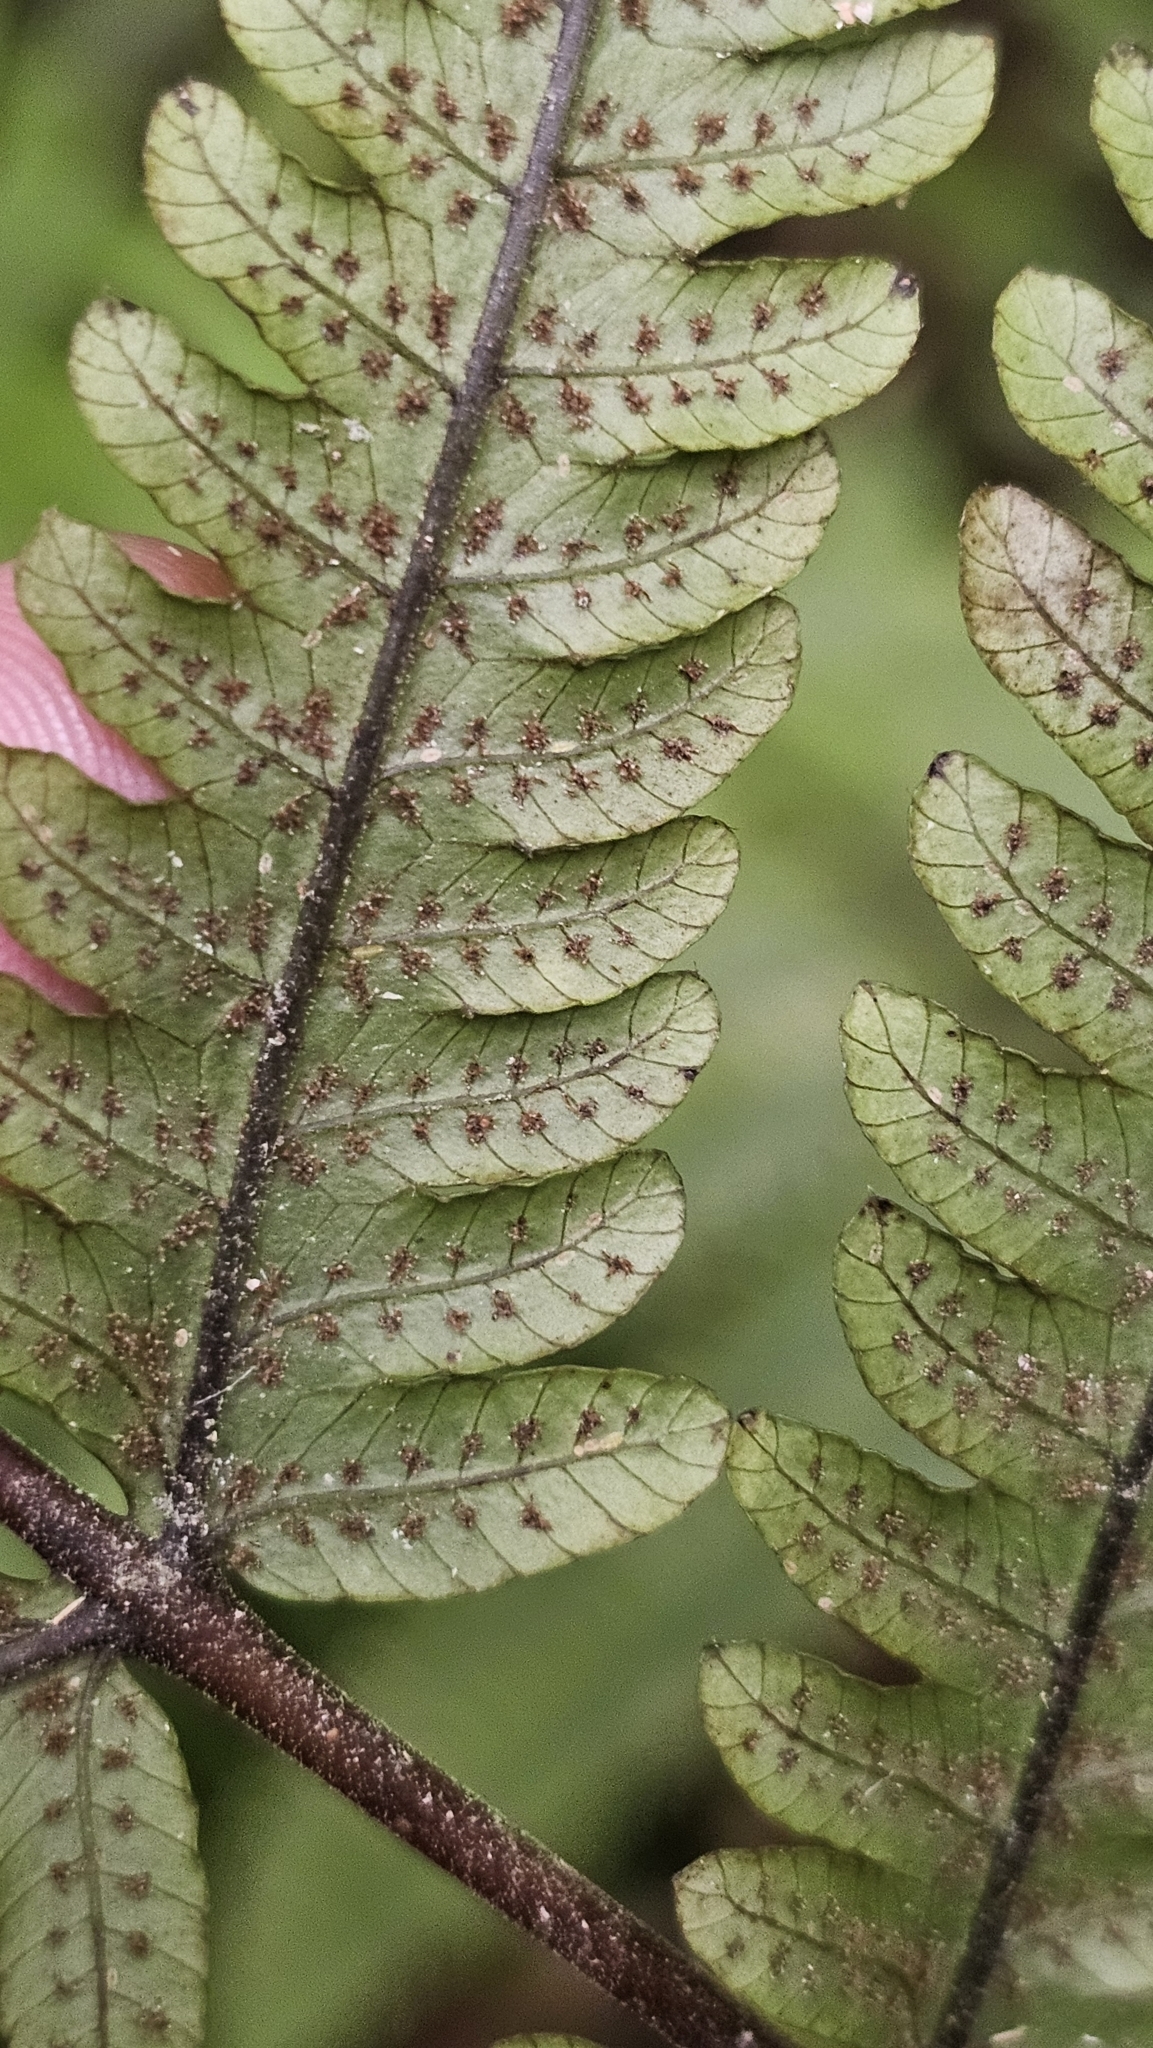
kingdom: Plantae
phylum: Tracheophyta
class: Polypodiopsida
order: Polypodiales
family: Thelypteridaceae
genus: Pakau
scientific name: Pakau pennigera
